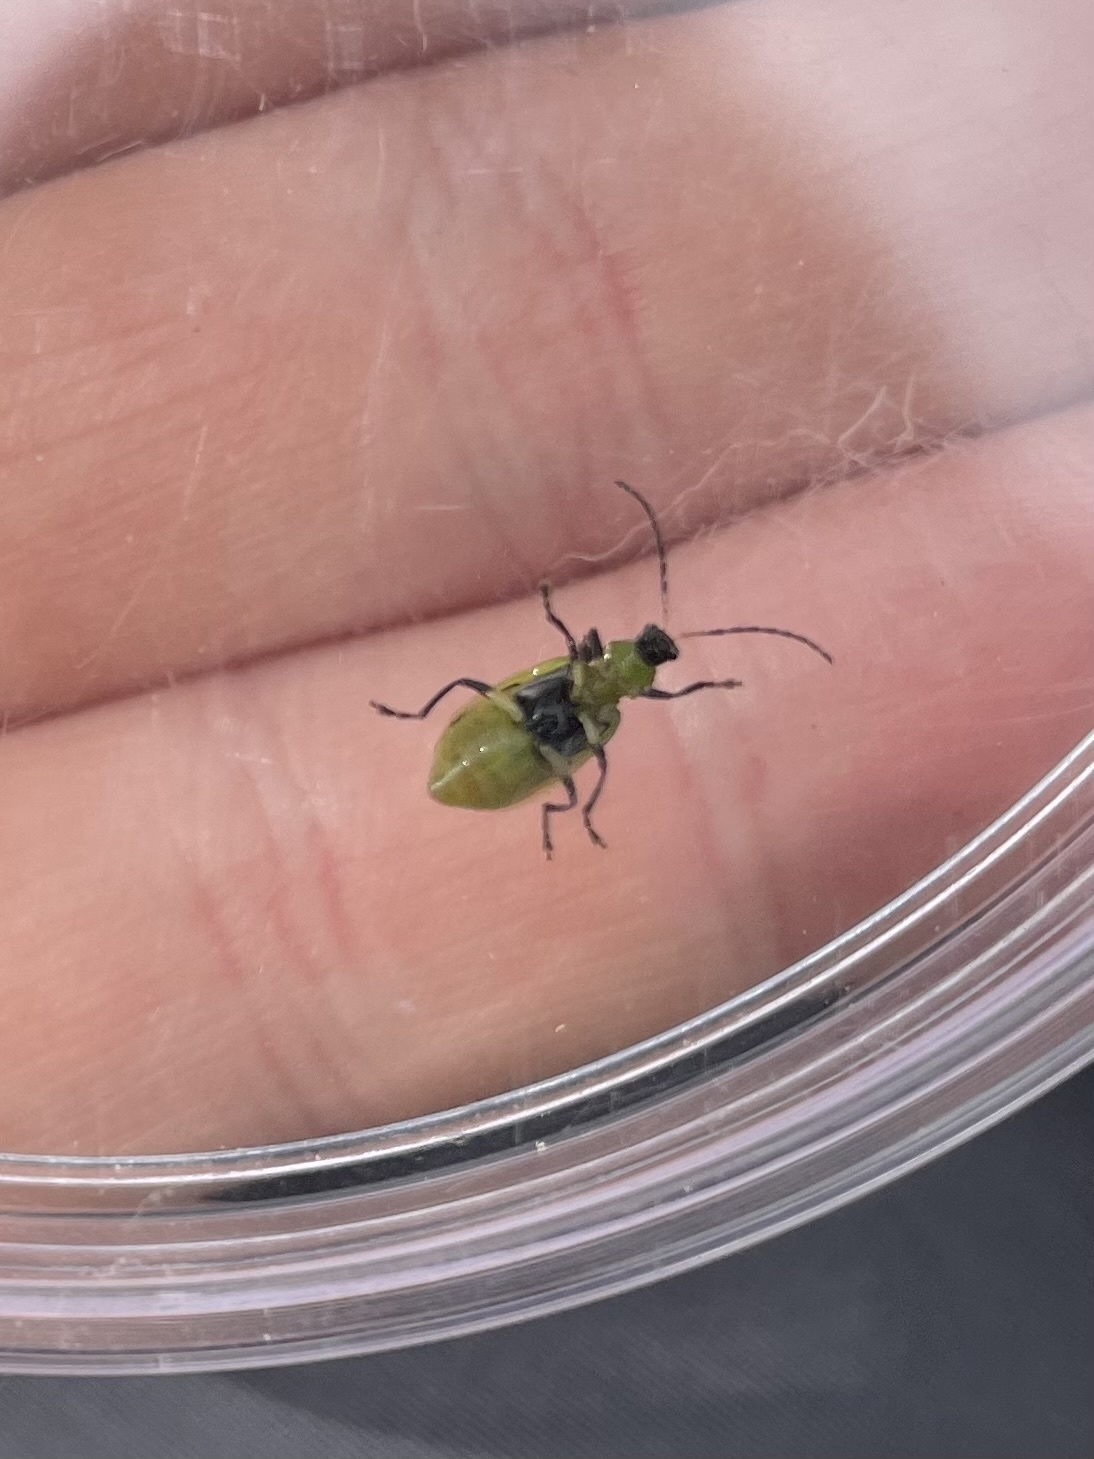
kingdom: Animalia
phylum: Arthropoda
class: Insecta
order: Coleoptera
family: Chrysomelidae
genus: Diabrotica
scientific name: Diabrotica undecimpunctata
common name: Spotted cucumber beetle
